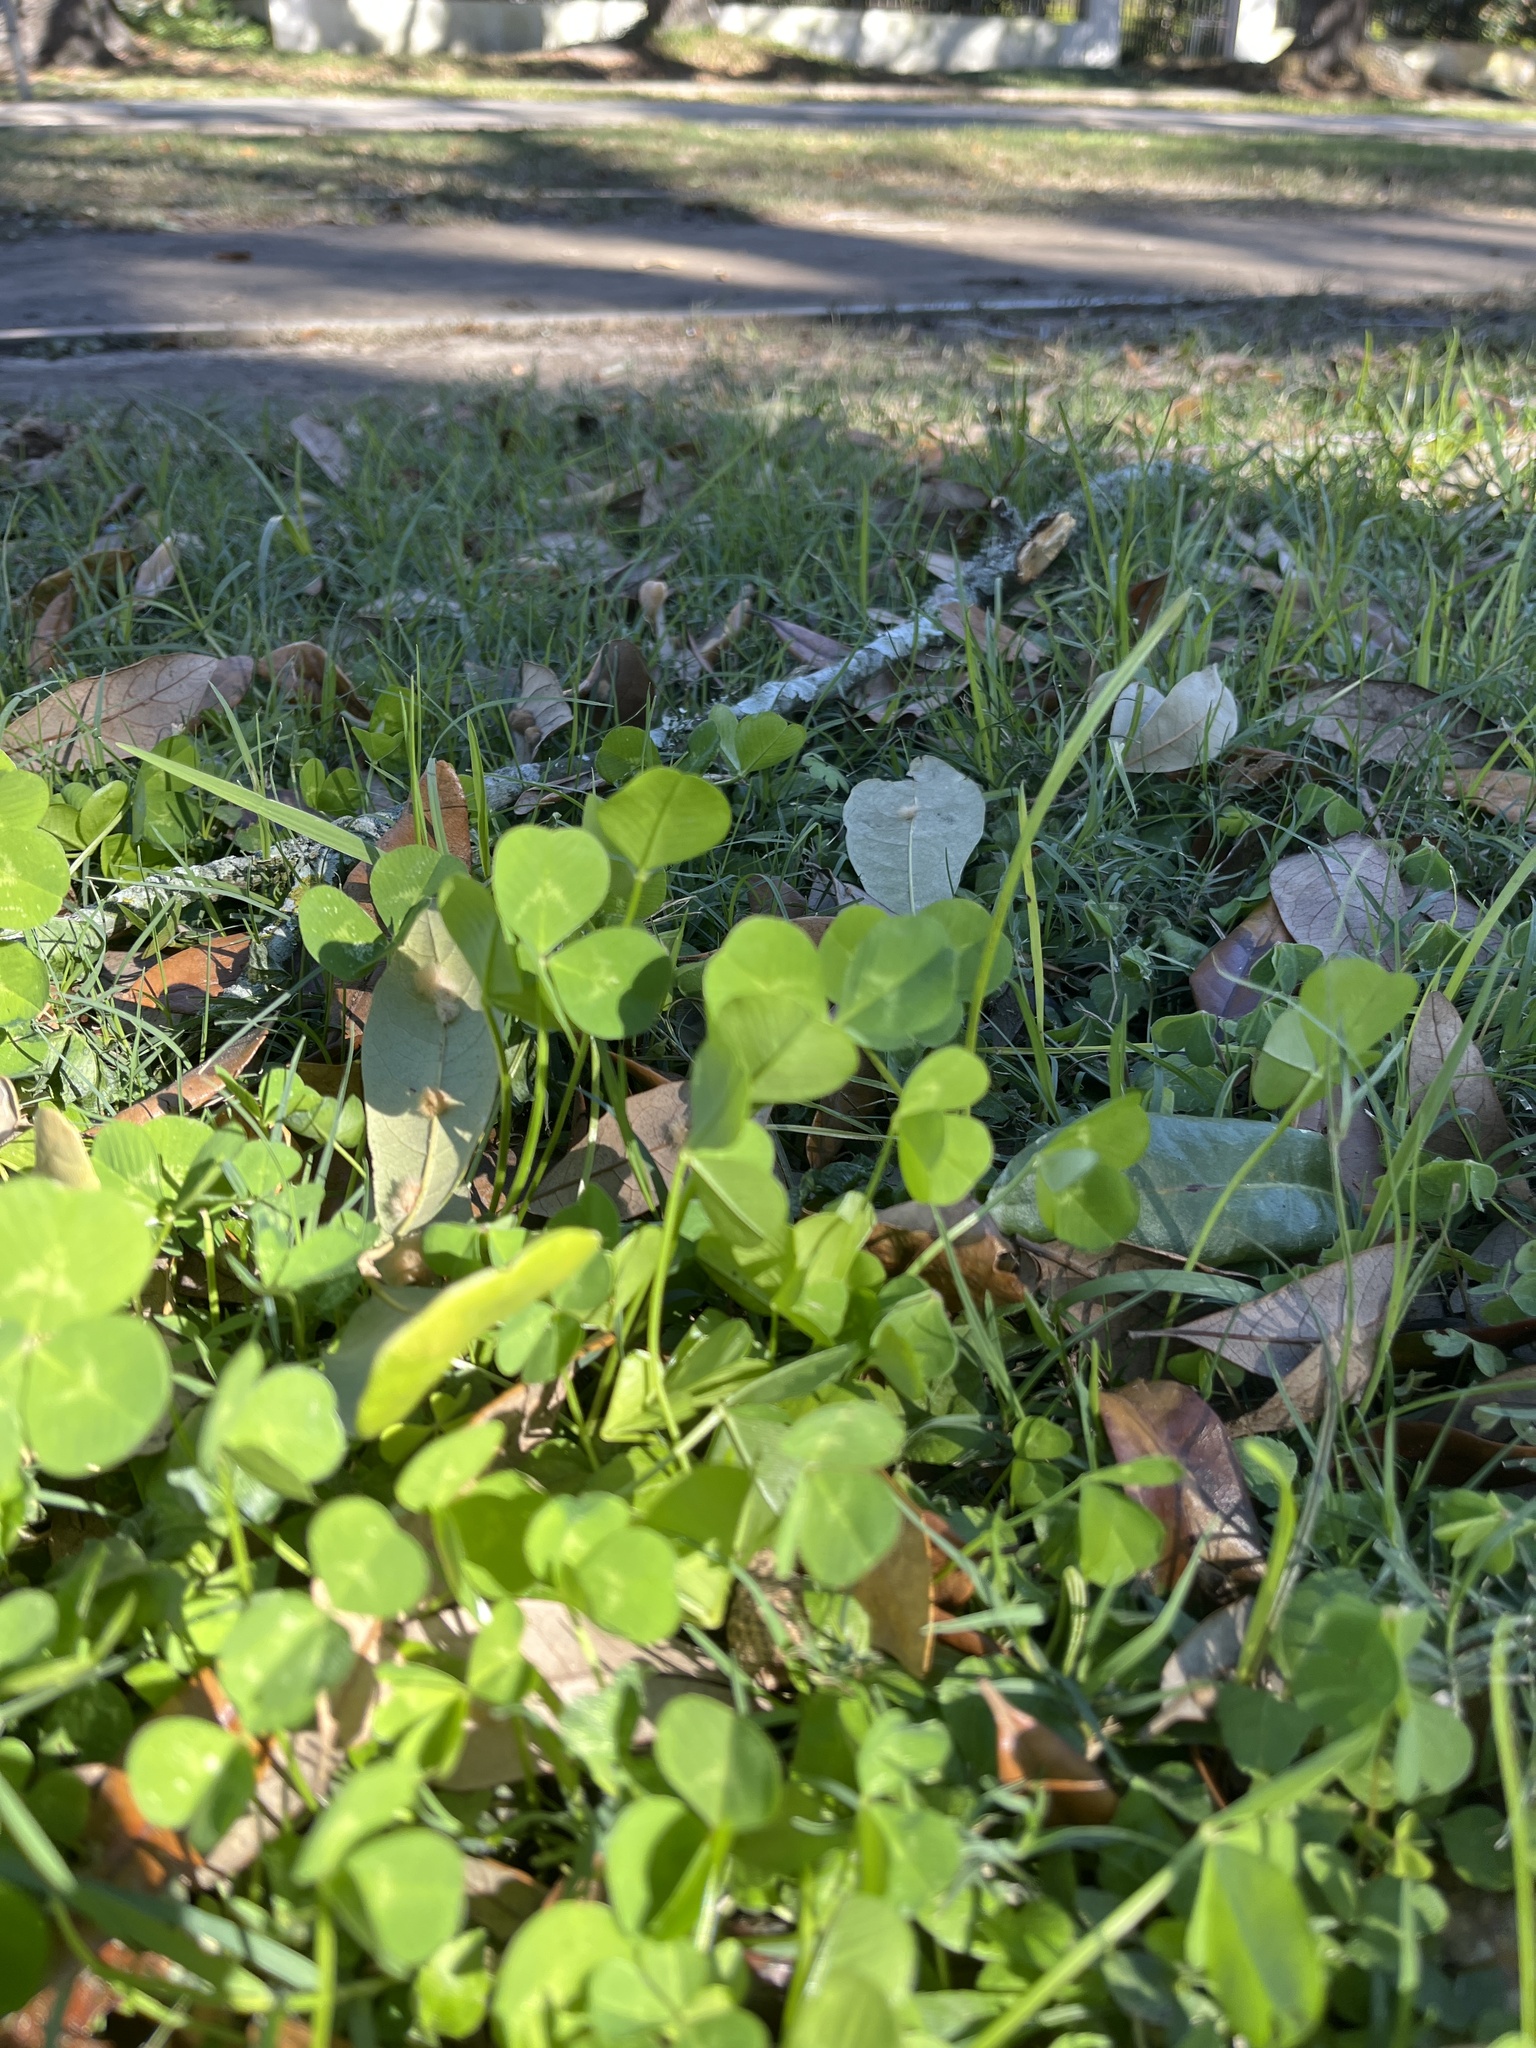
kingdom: Plantae
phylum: Tracheophyta
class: Magnoliopsida
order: Fabales
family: Fabaceae
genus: Trifolium
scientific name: Trifolium repens
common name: White clover
